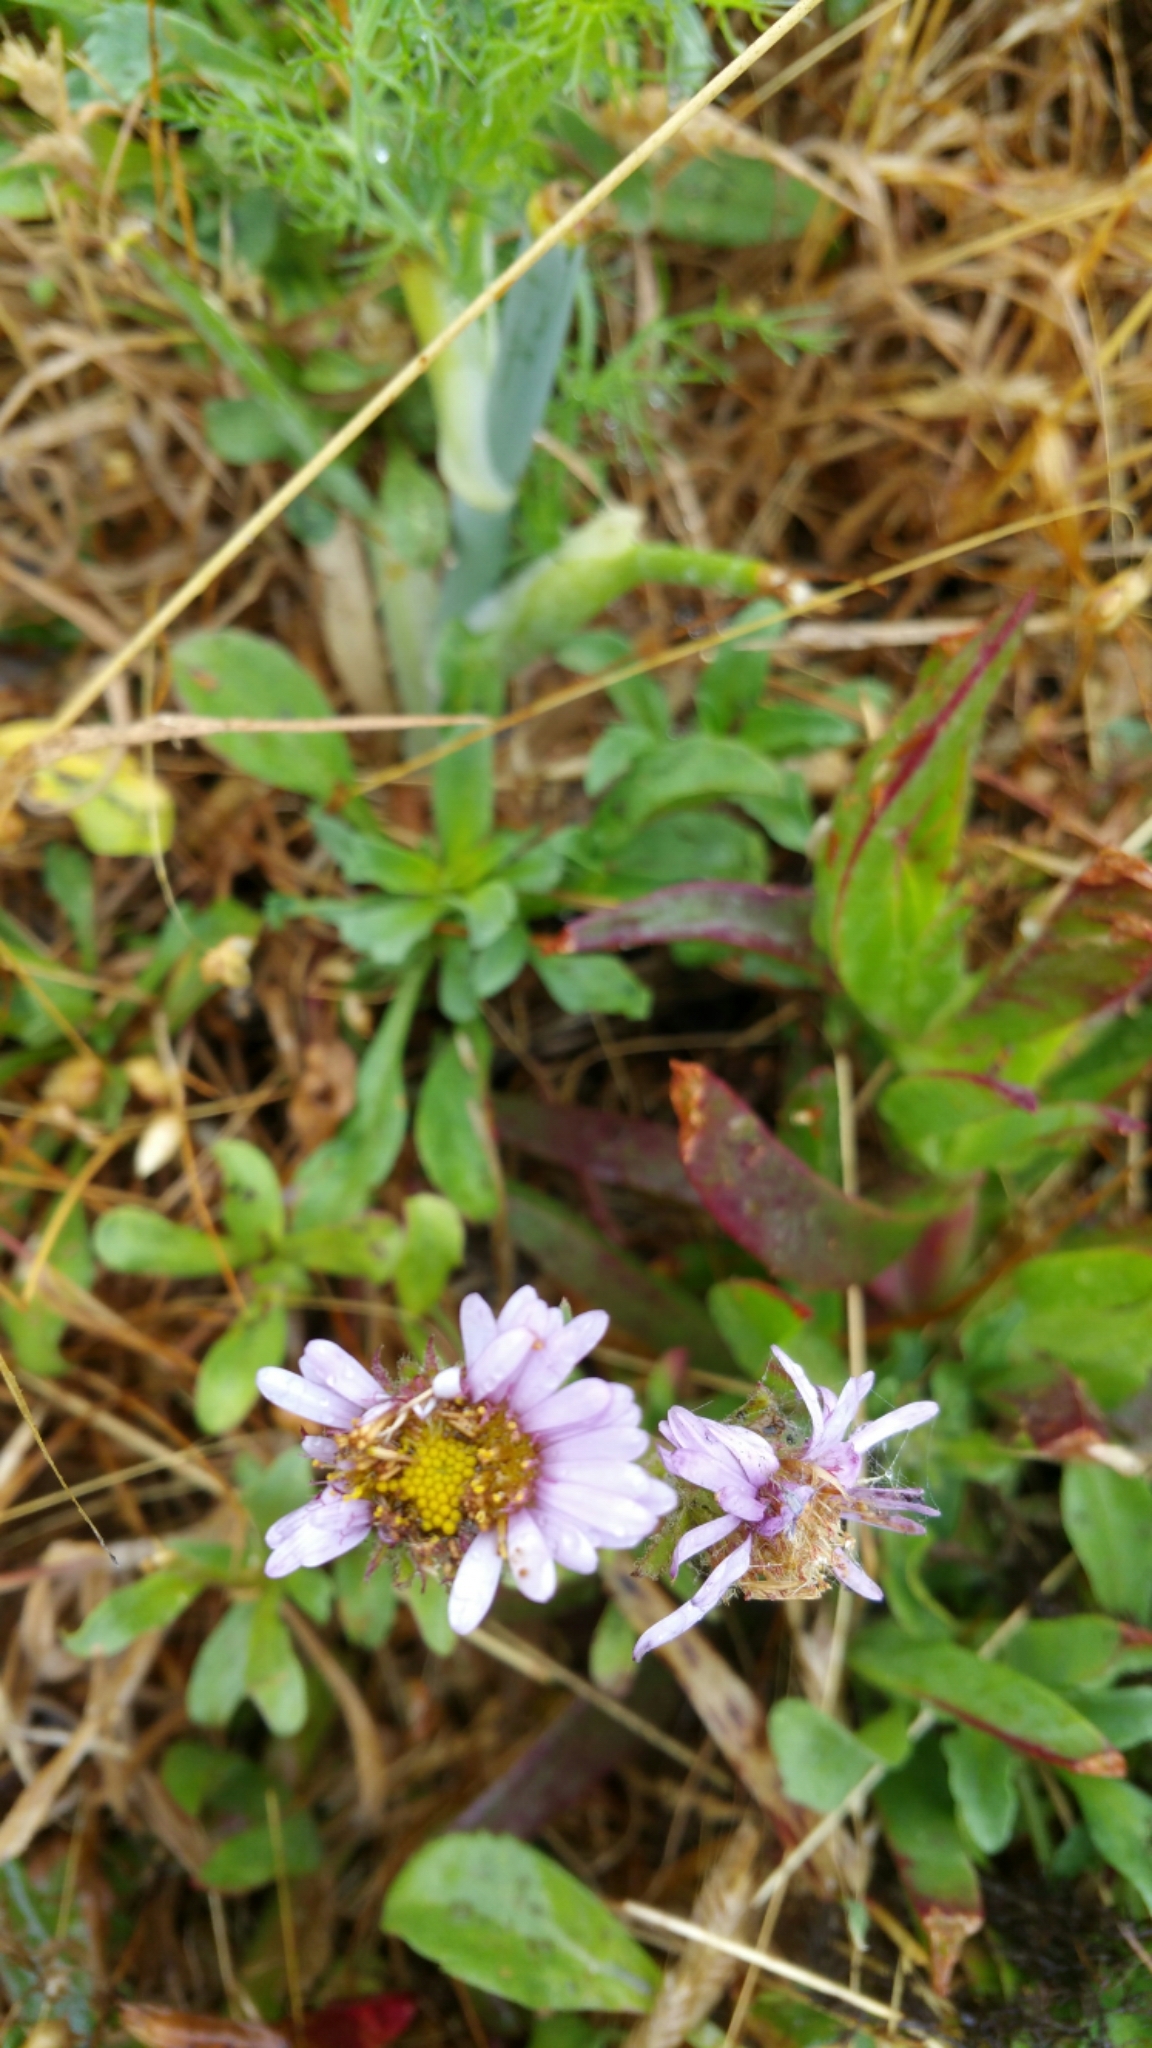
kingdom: Plantae
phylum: Tracheophyta
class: Magnoliopsida
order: Asterales
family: Asteraceae
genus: Erigeron
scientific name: Erigeron glaucus
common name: Seaside daisy
